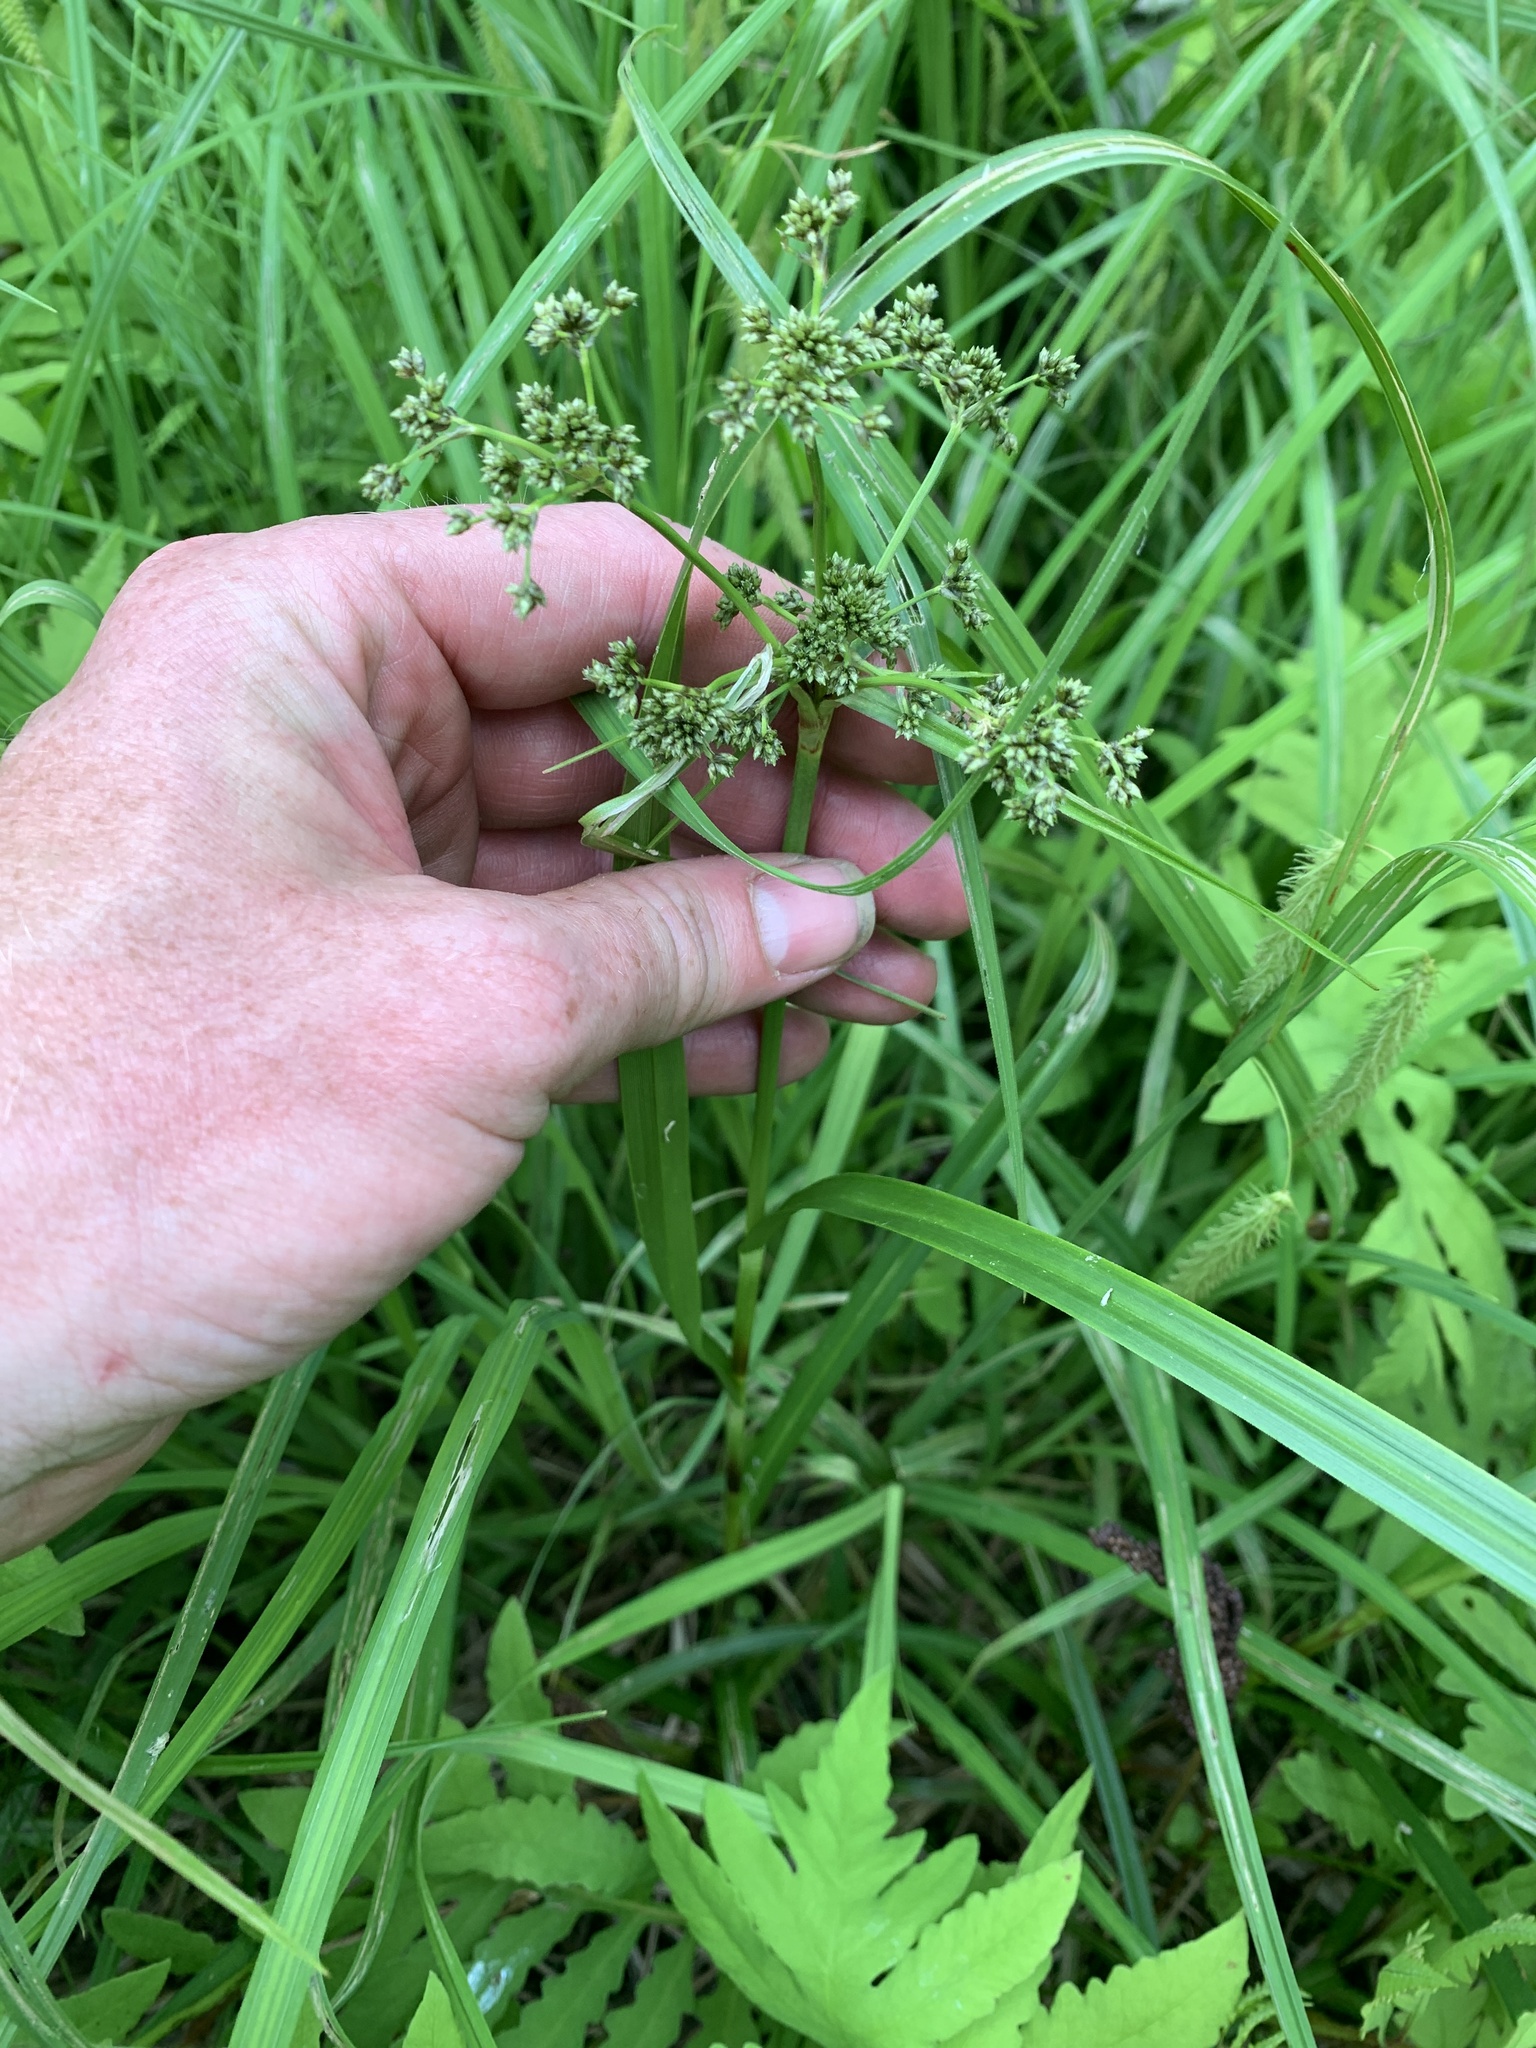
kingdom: Plantae
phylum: Tracheophyta
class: Liliopsida
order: Poales
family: Cyperaceae
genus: Scirpus
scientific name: Scirpus microcarpus
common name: Panicled bulrush
